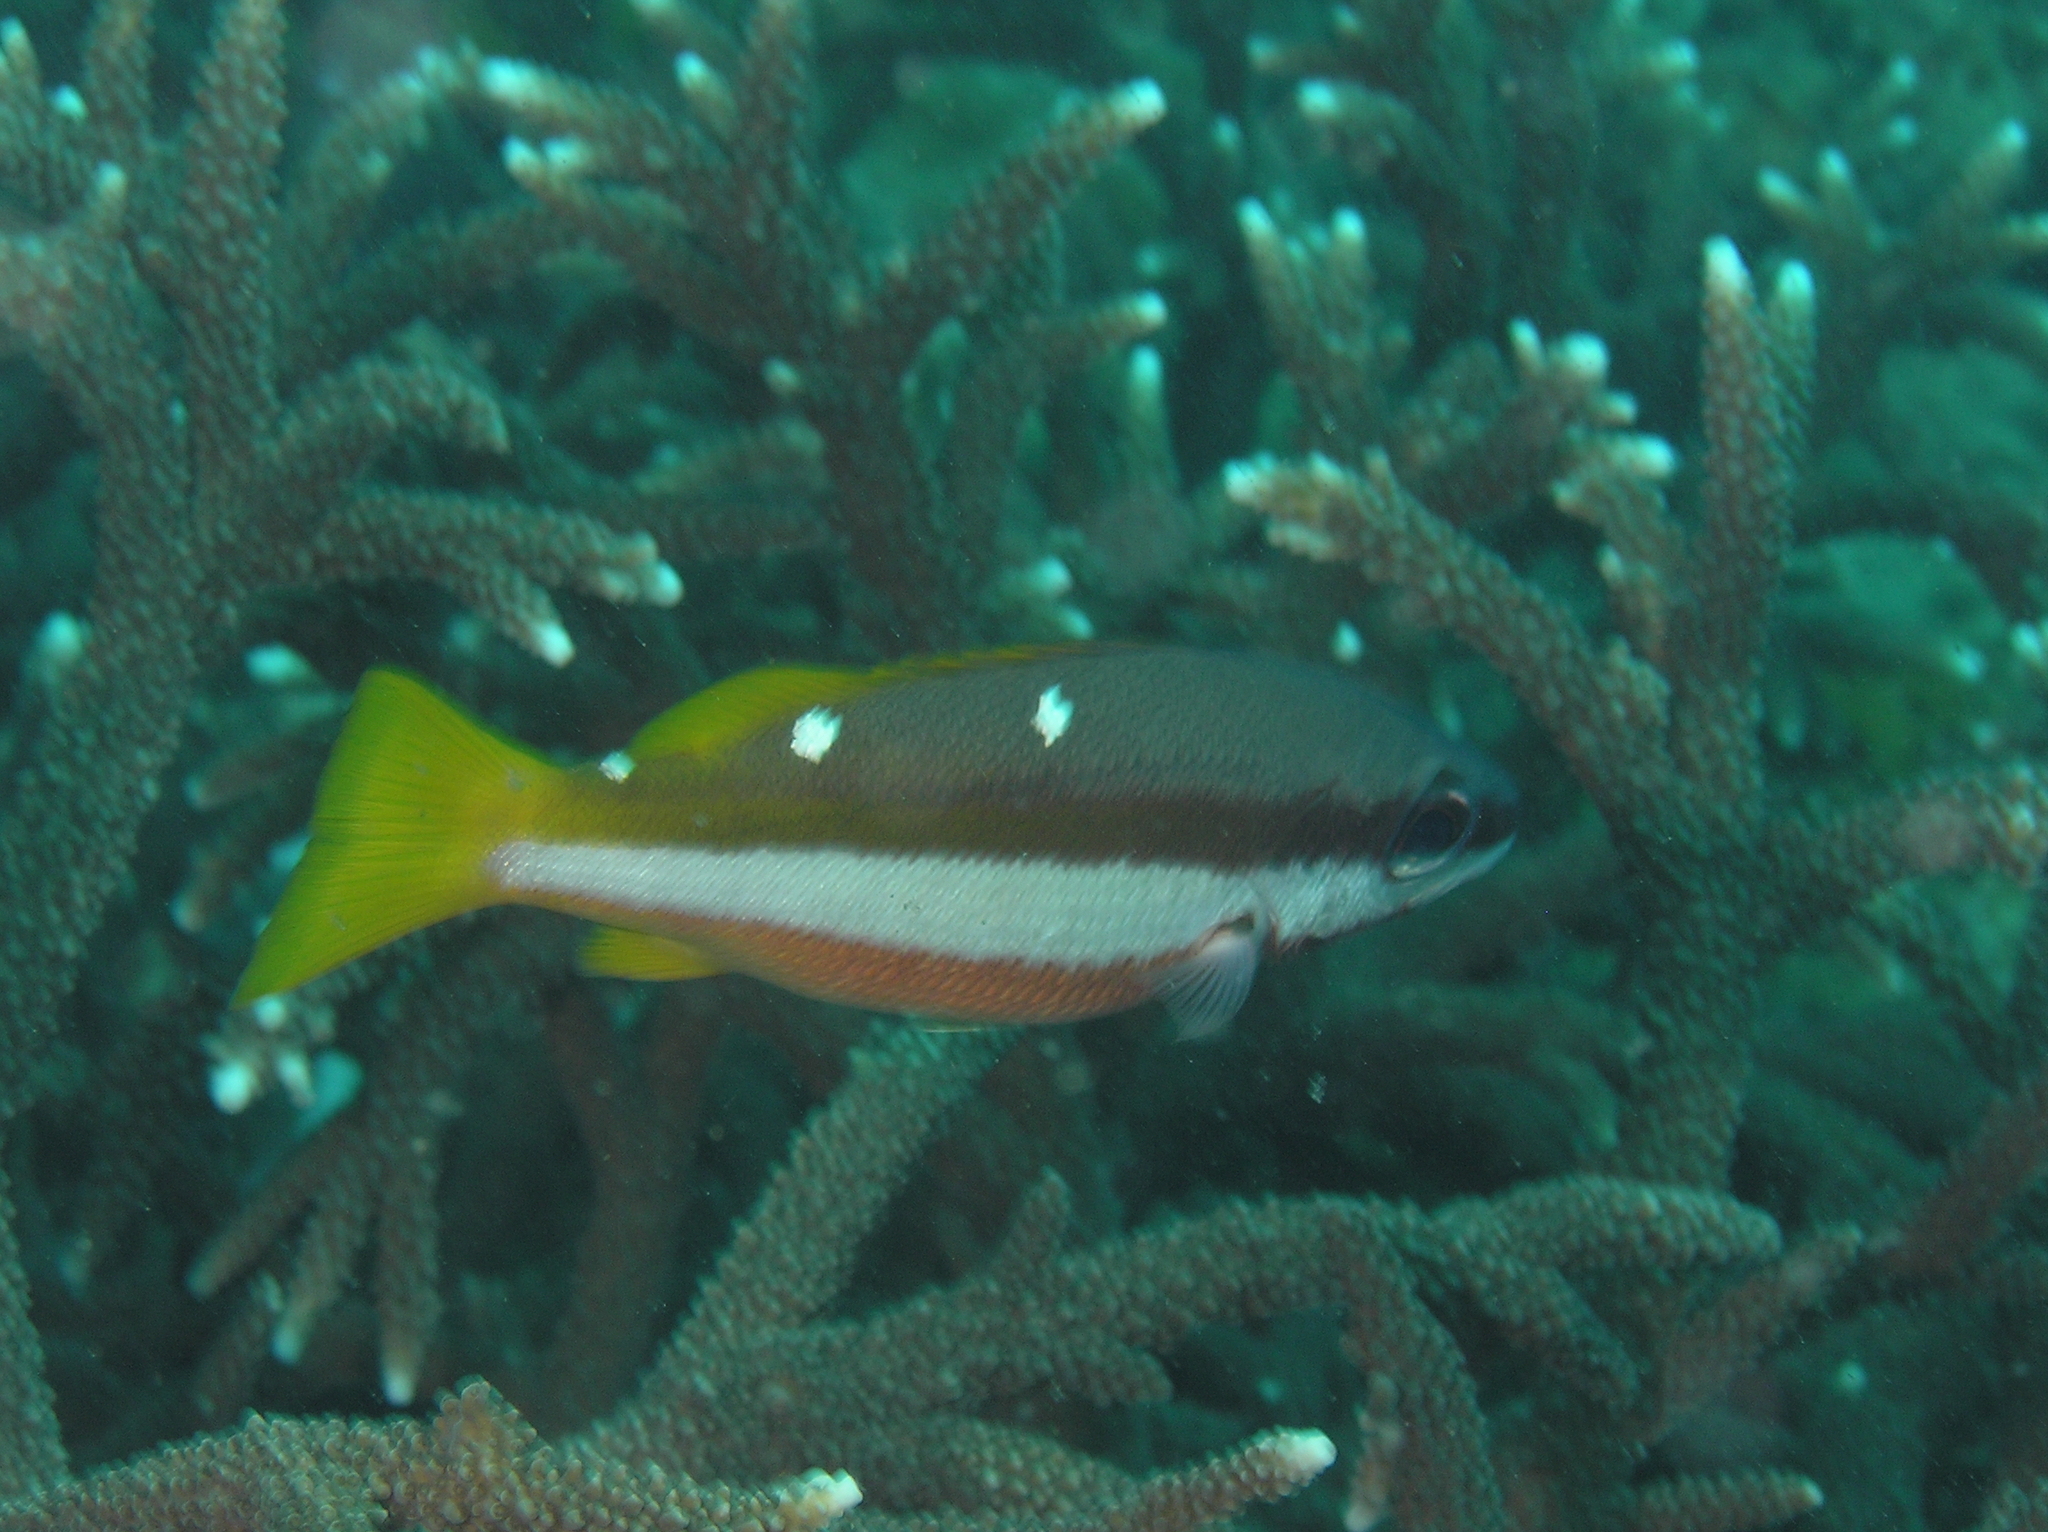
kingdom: Animalia
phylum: Chordata
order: Perciformes
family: Lutjanidae
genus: Lutjanus
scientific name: Lutjanus biguttatus
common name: Two-spot snapper
